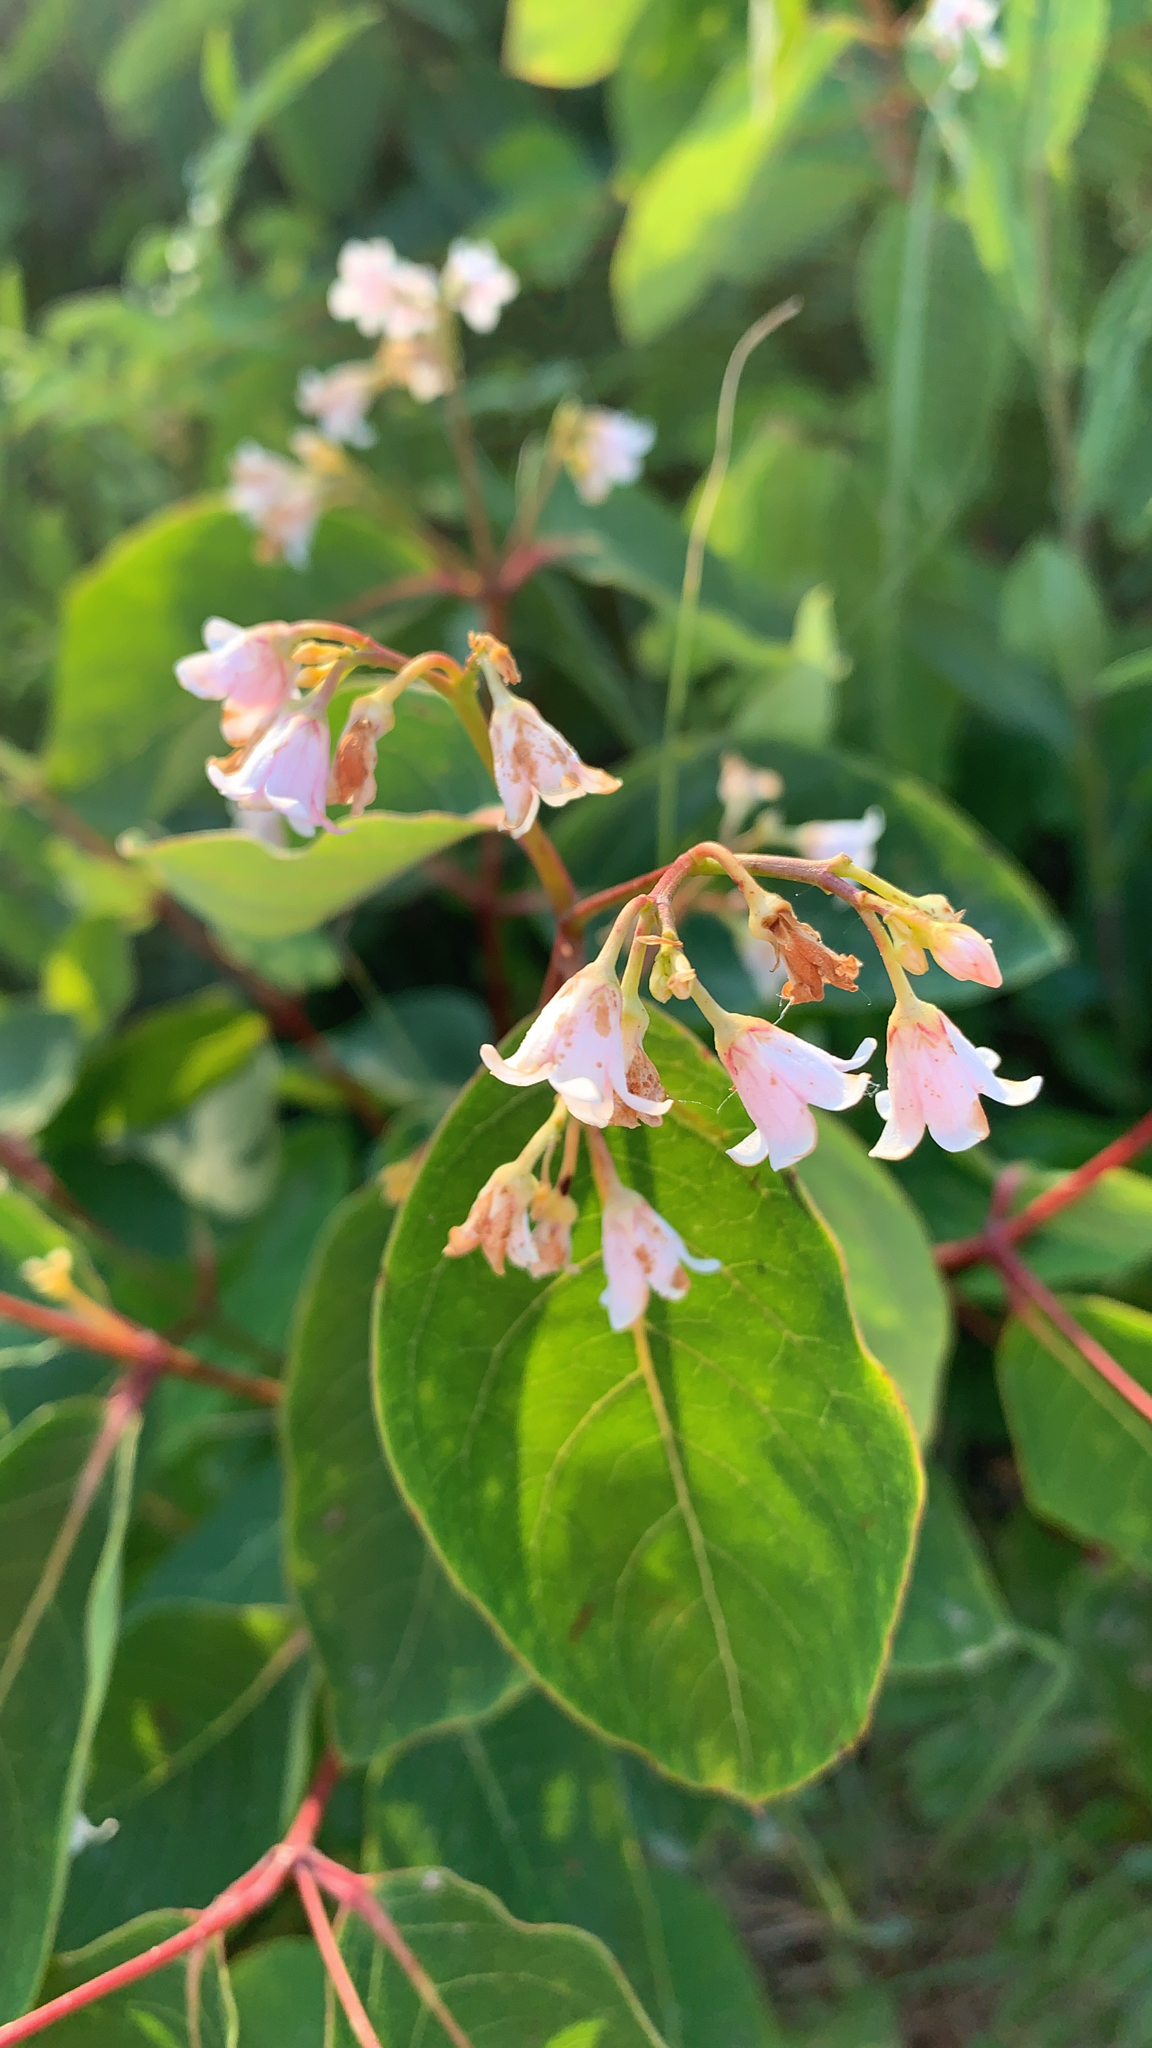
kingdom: Plantae
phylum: Tracheophyta
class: Magnoliopsida
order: Gentianales
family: Apocynaceae
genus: Apocynum
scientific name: Apocynum androsaemifolium
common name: Spreading dogbane
